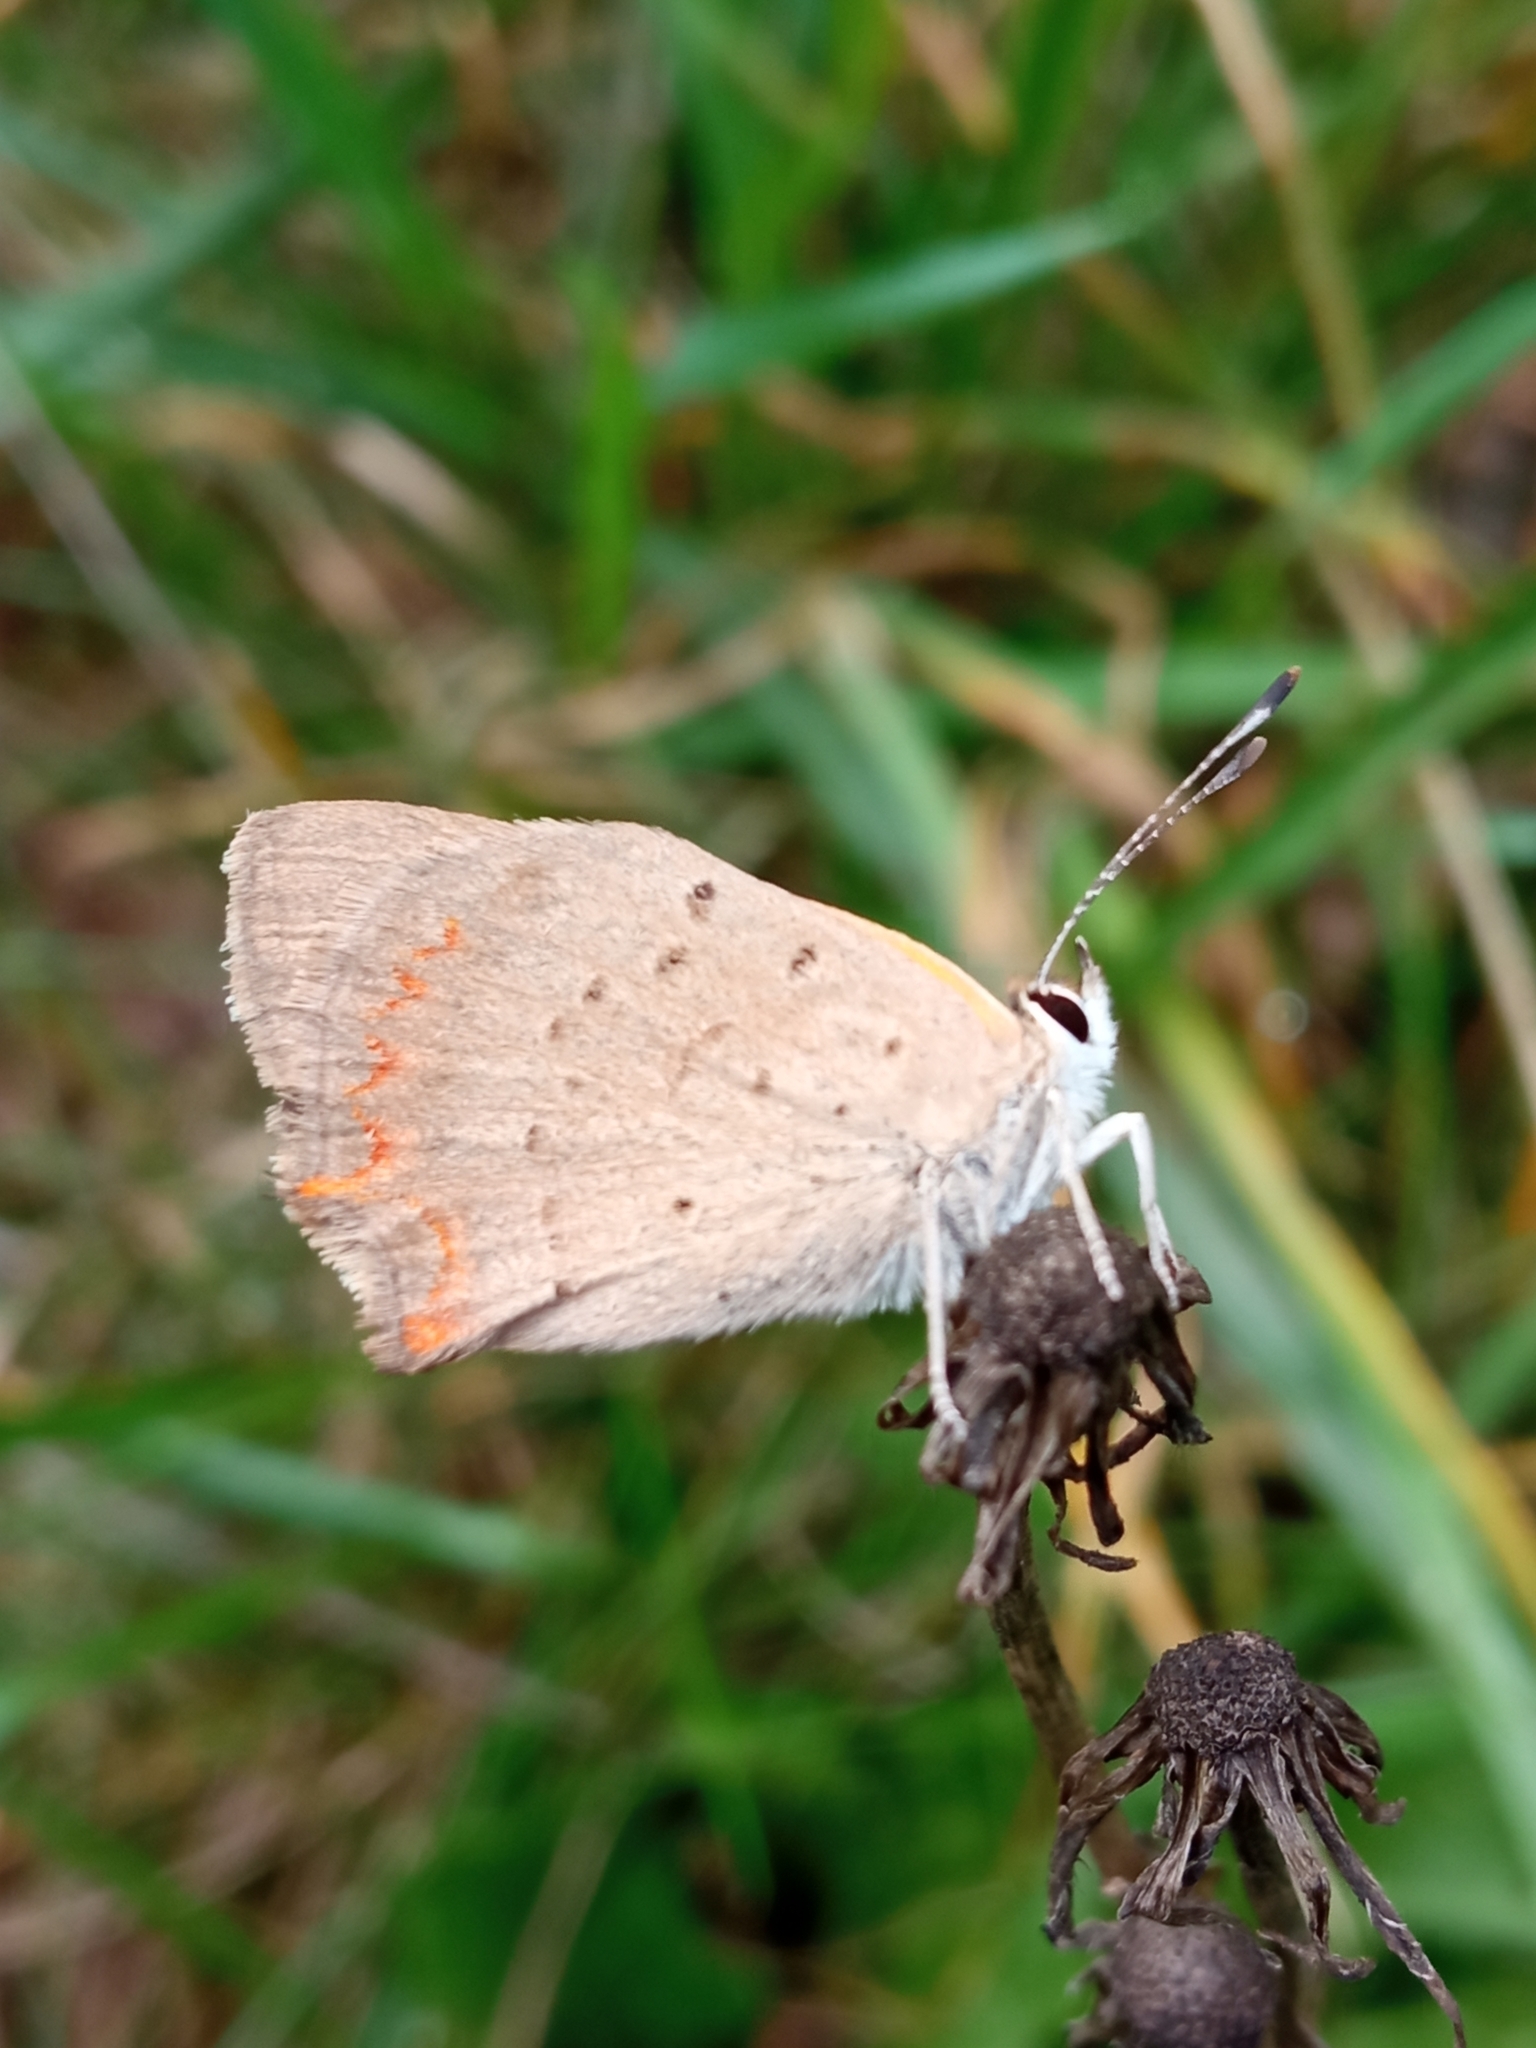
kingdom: Animalia
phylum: Arthropoda
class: Insecta
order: Lepidoptera
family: Lycaenidae
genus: Lycaena
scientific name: Lycaena phlaeas
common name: Small copper
